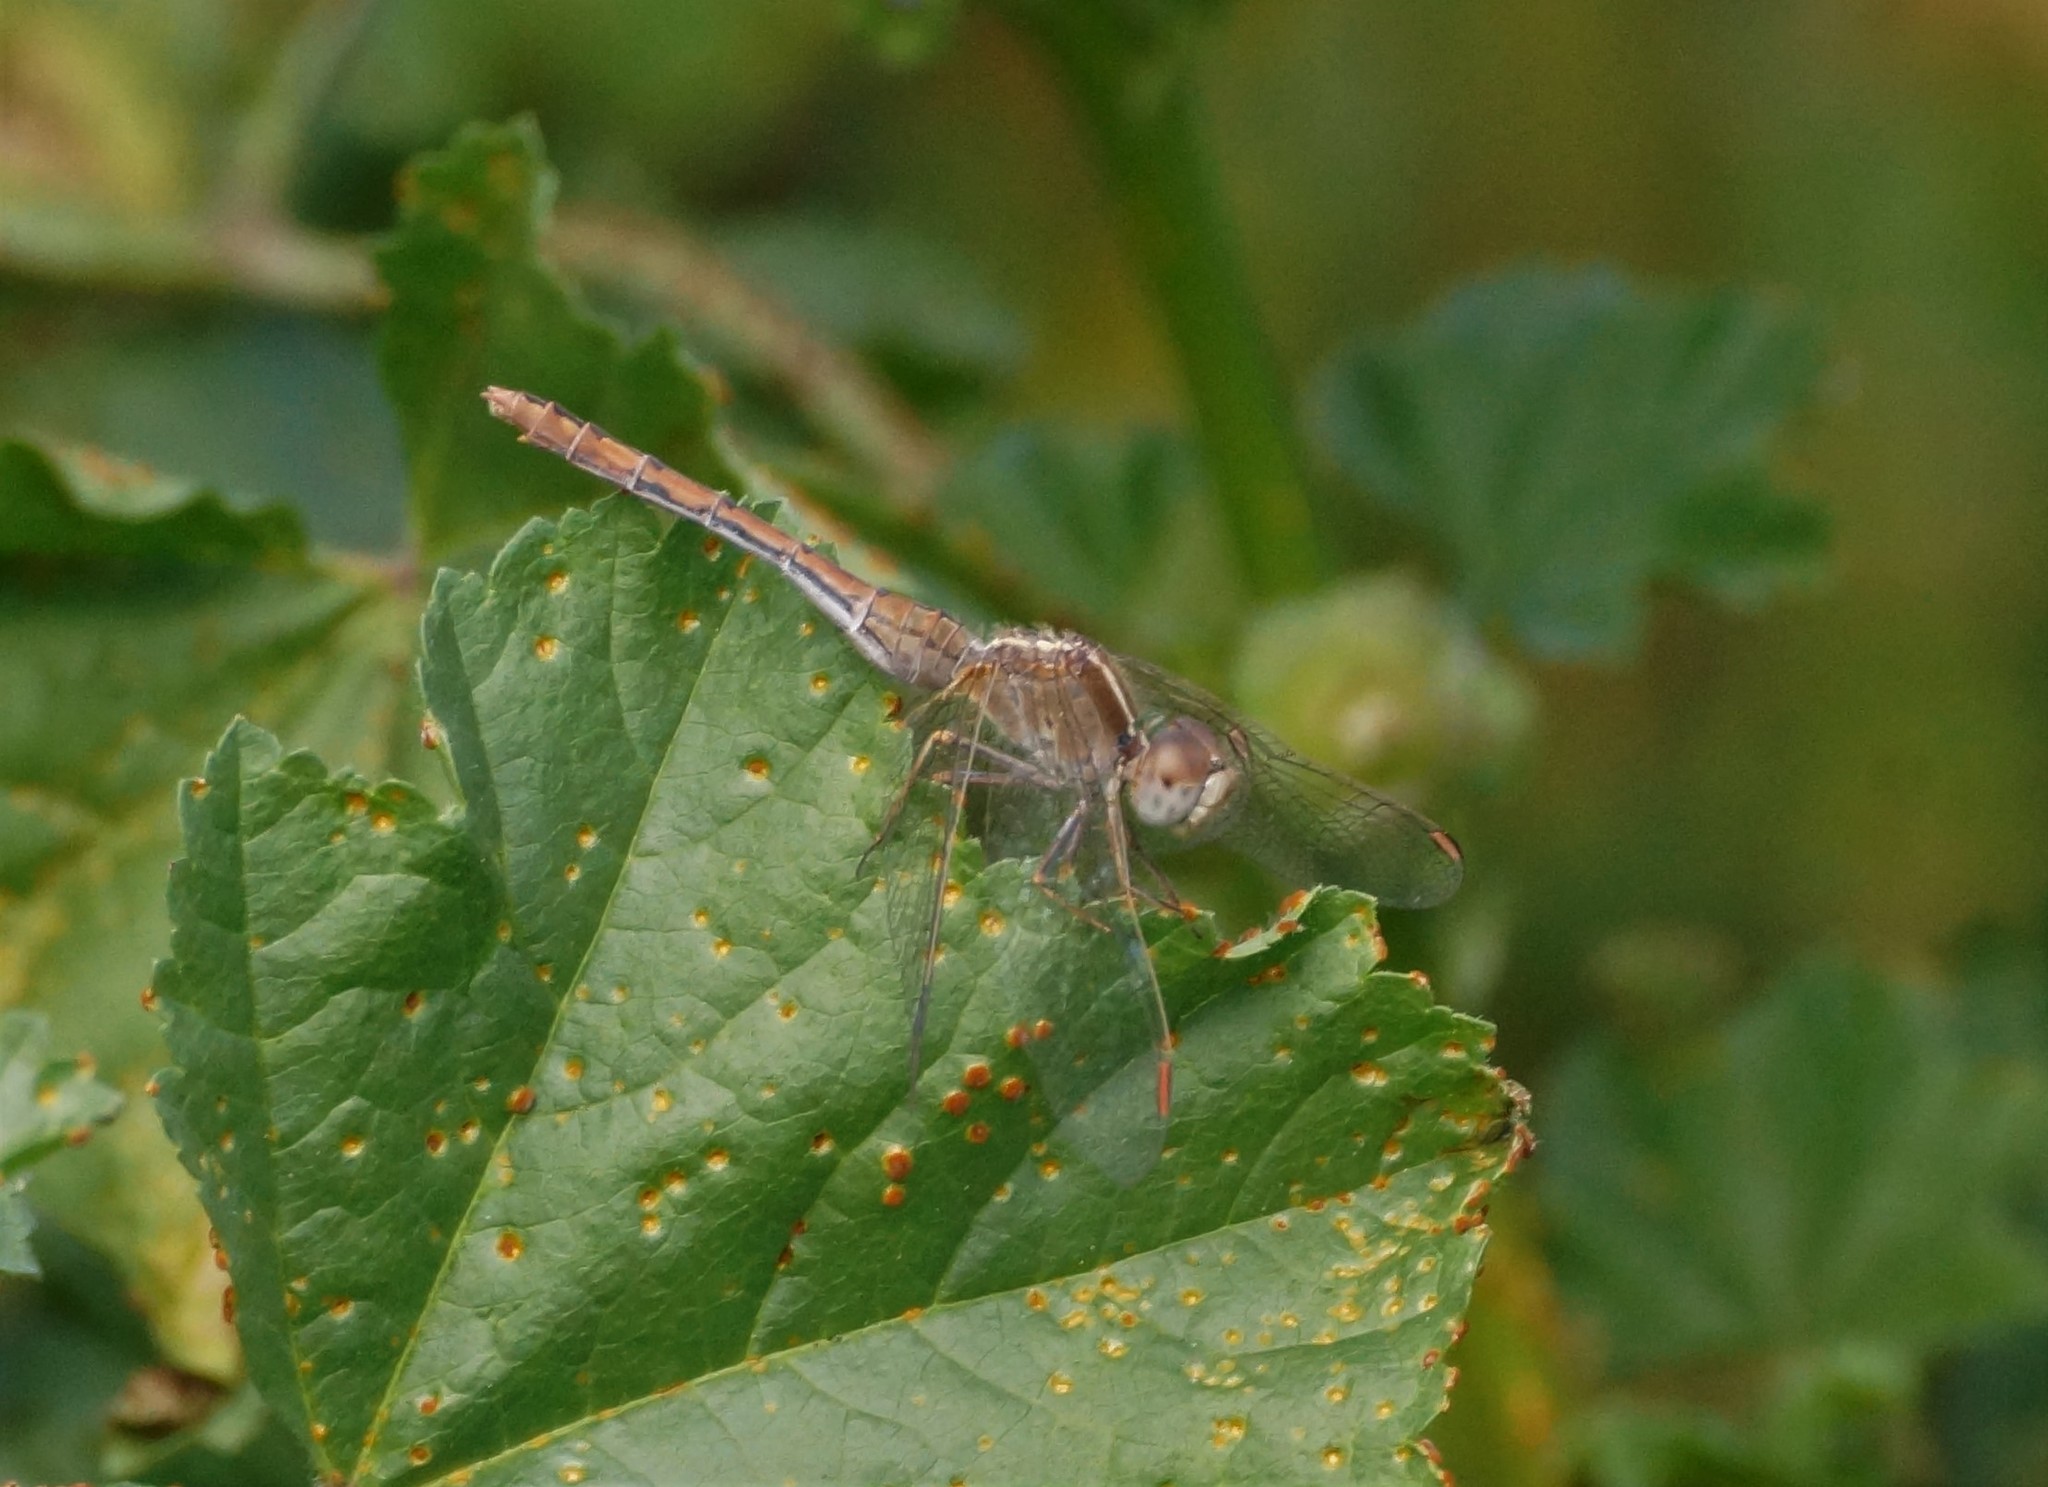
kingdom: Animalia
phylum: Arthropoda
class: Insecta
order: Odonata
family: Libellulidae
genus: Diplacodes
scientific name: Diplacodes bipunctata
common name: Red percher dragonfly
